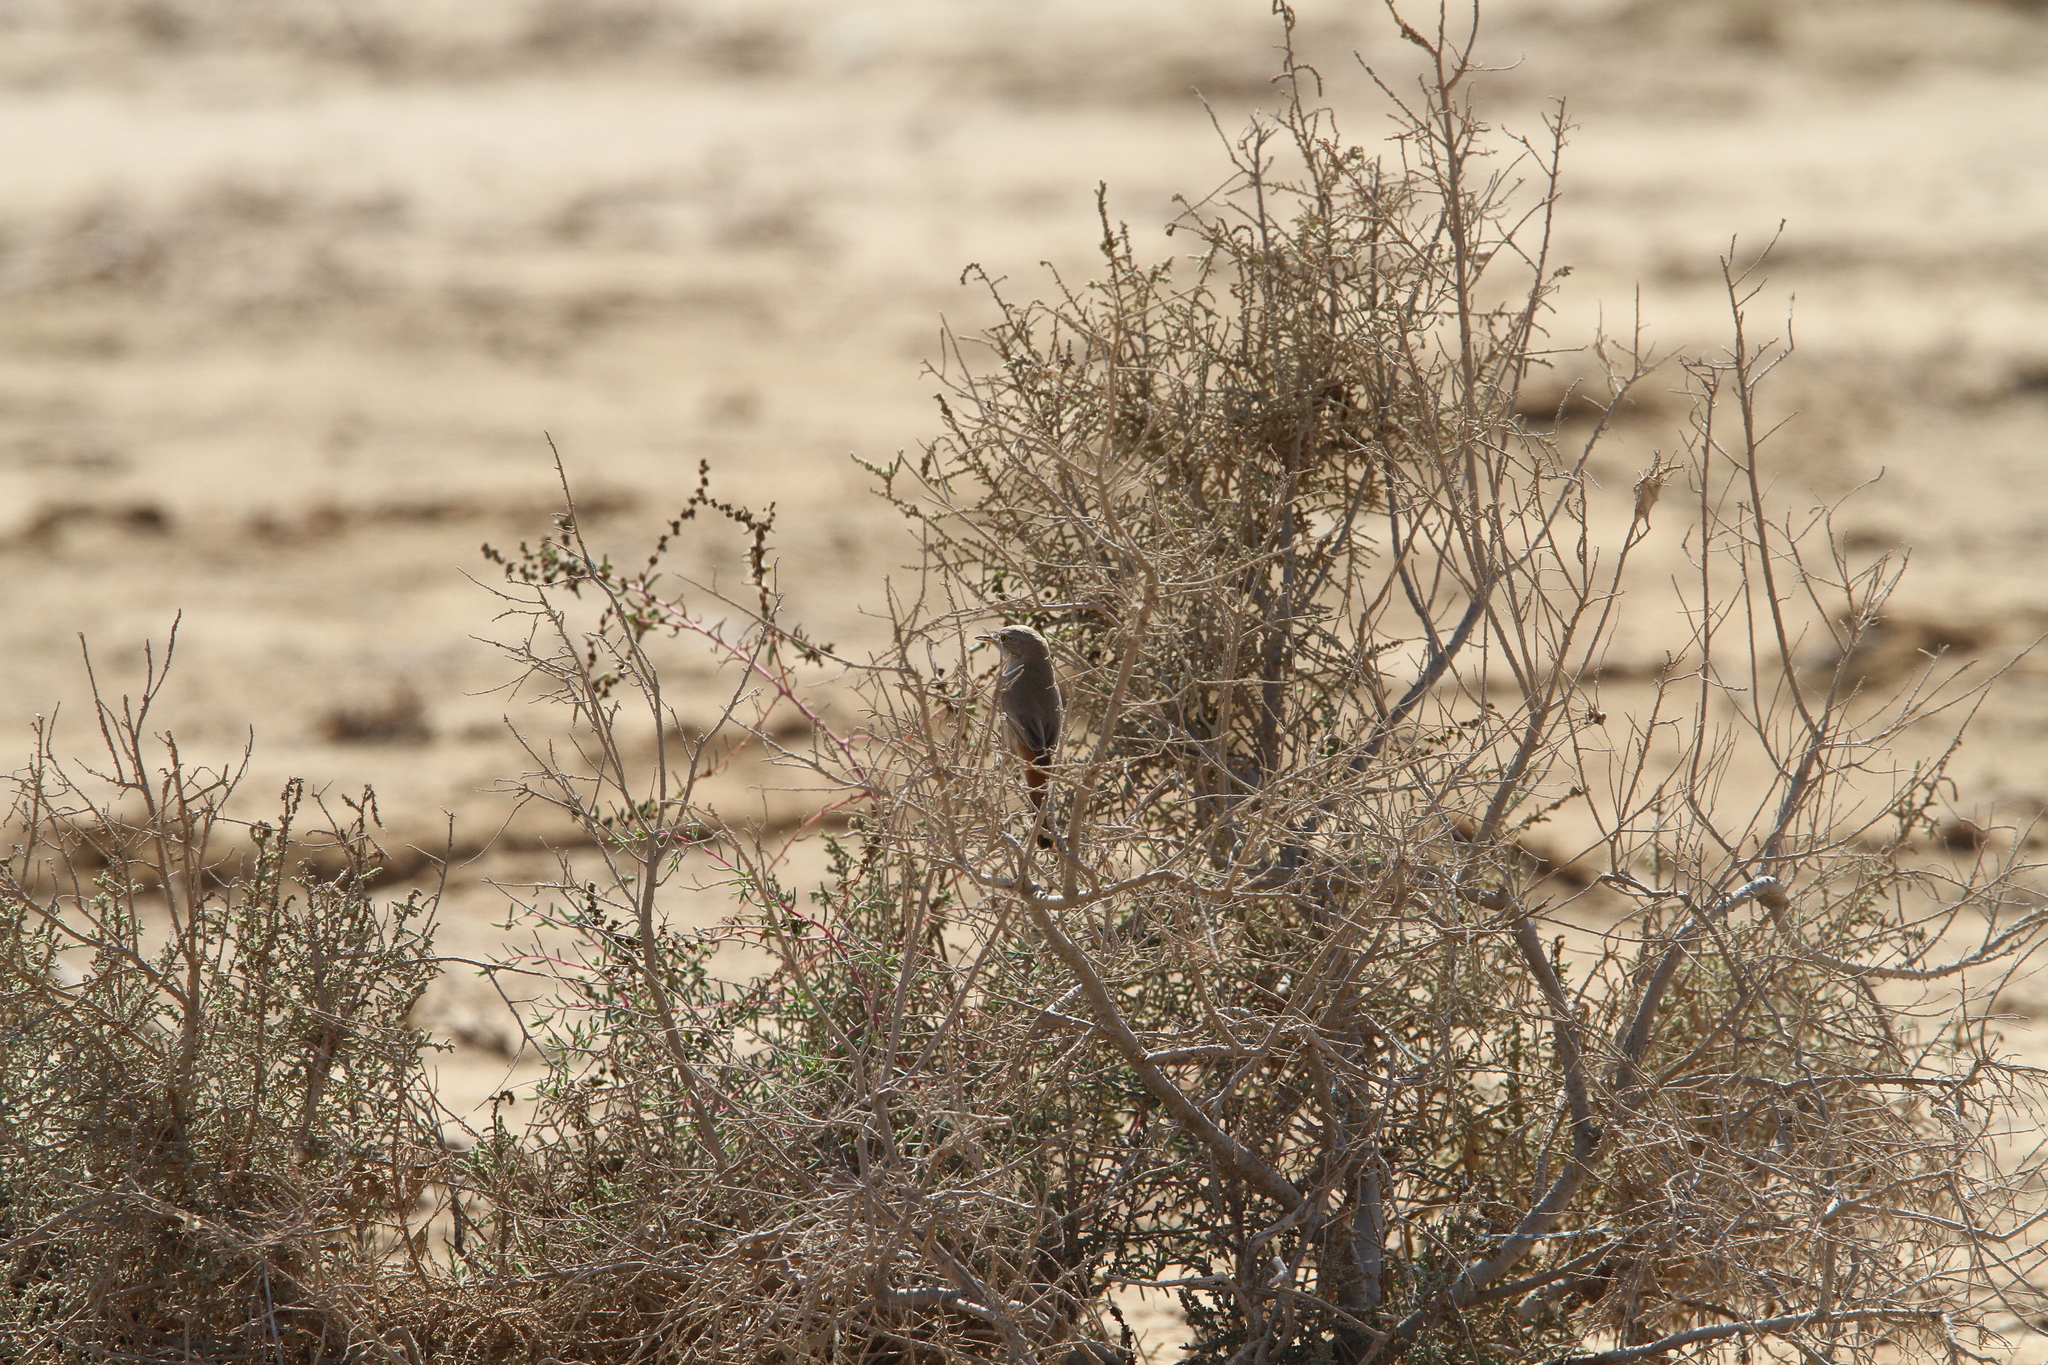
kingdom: Animalia
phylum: Chordata
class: Aves
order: Passeriformes
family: Sylviidae
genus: Sylvia
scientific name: Sylvia nana
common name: Asian desert warbler
